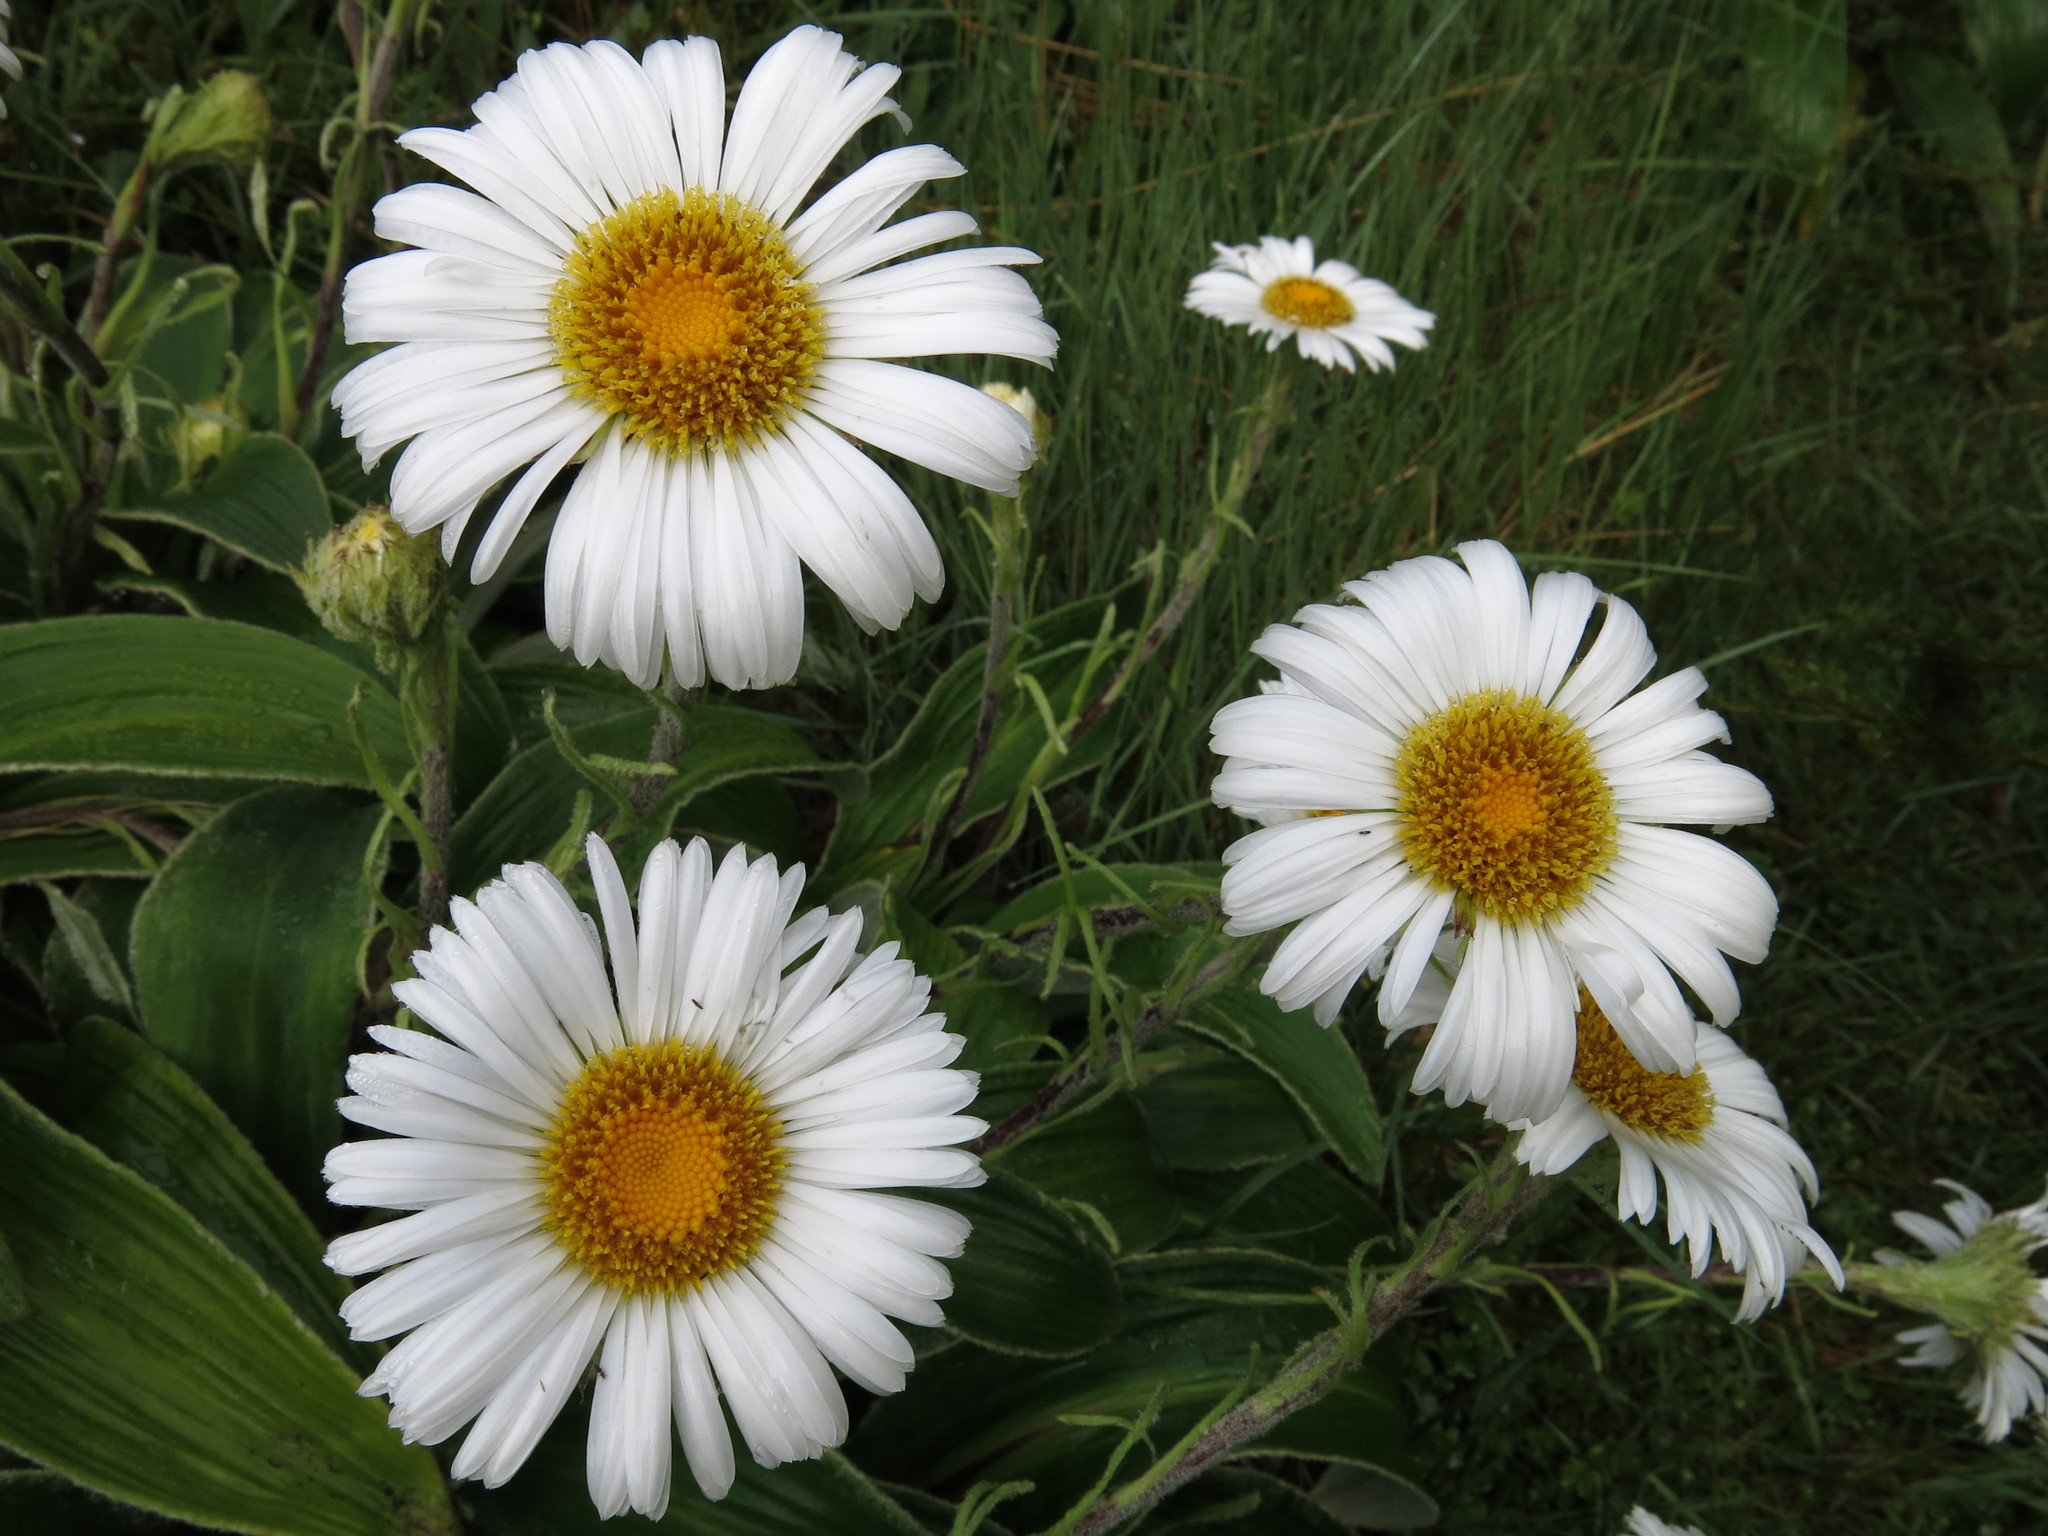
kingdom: Plantae
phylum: Tracheophyta
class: Magnoliopsida
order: Asterales
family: Asteraceae
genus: Celmisia
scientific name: Celmisia verbascifolia
